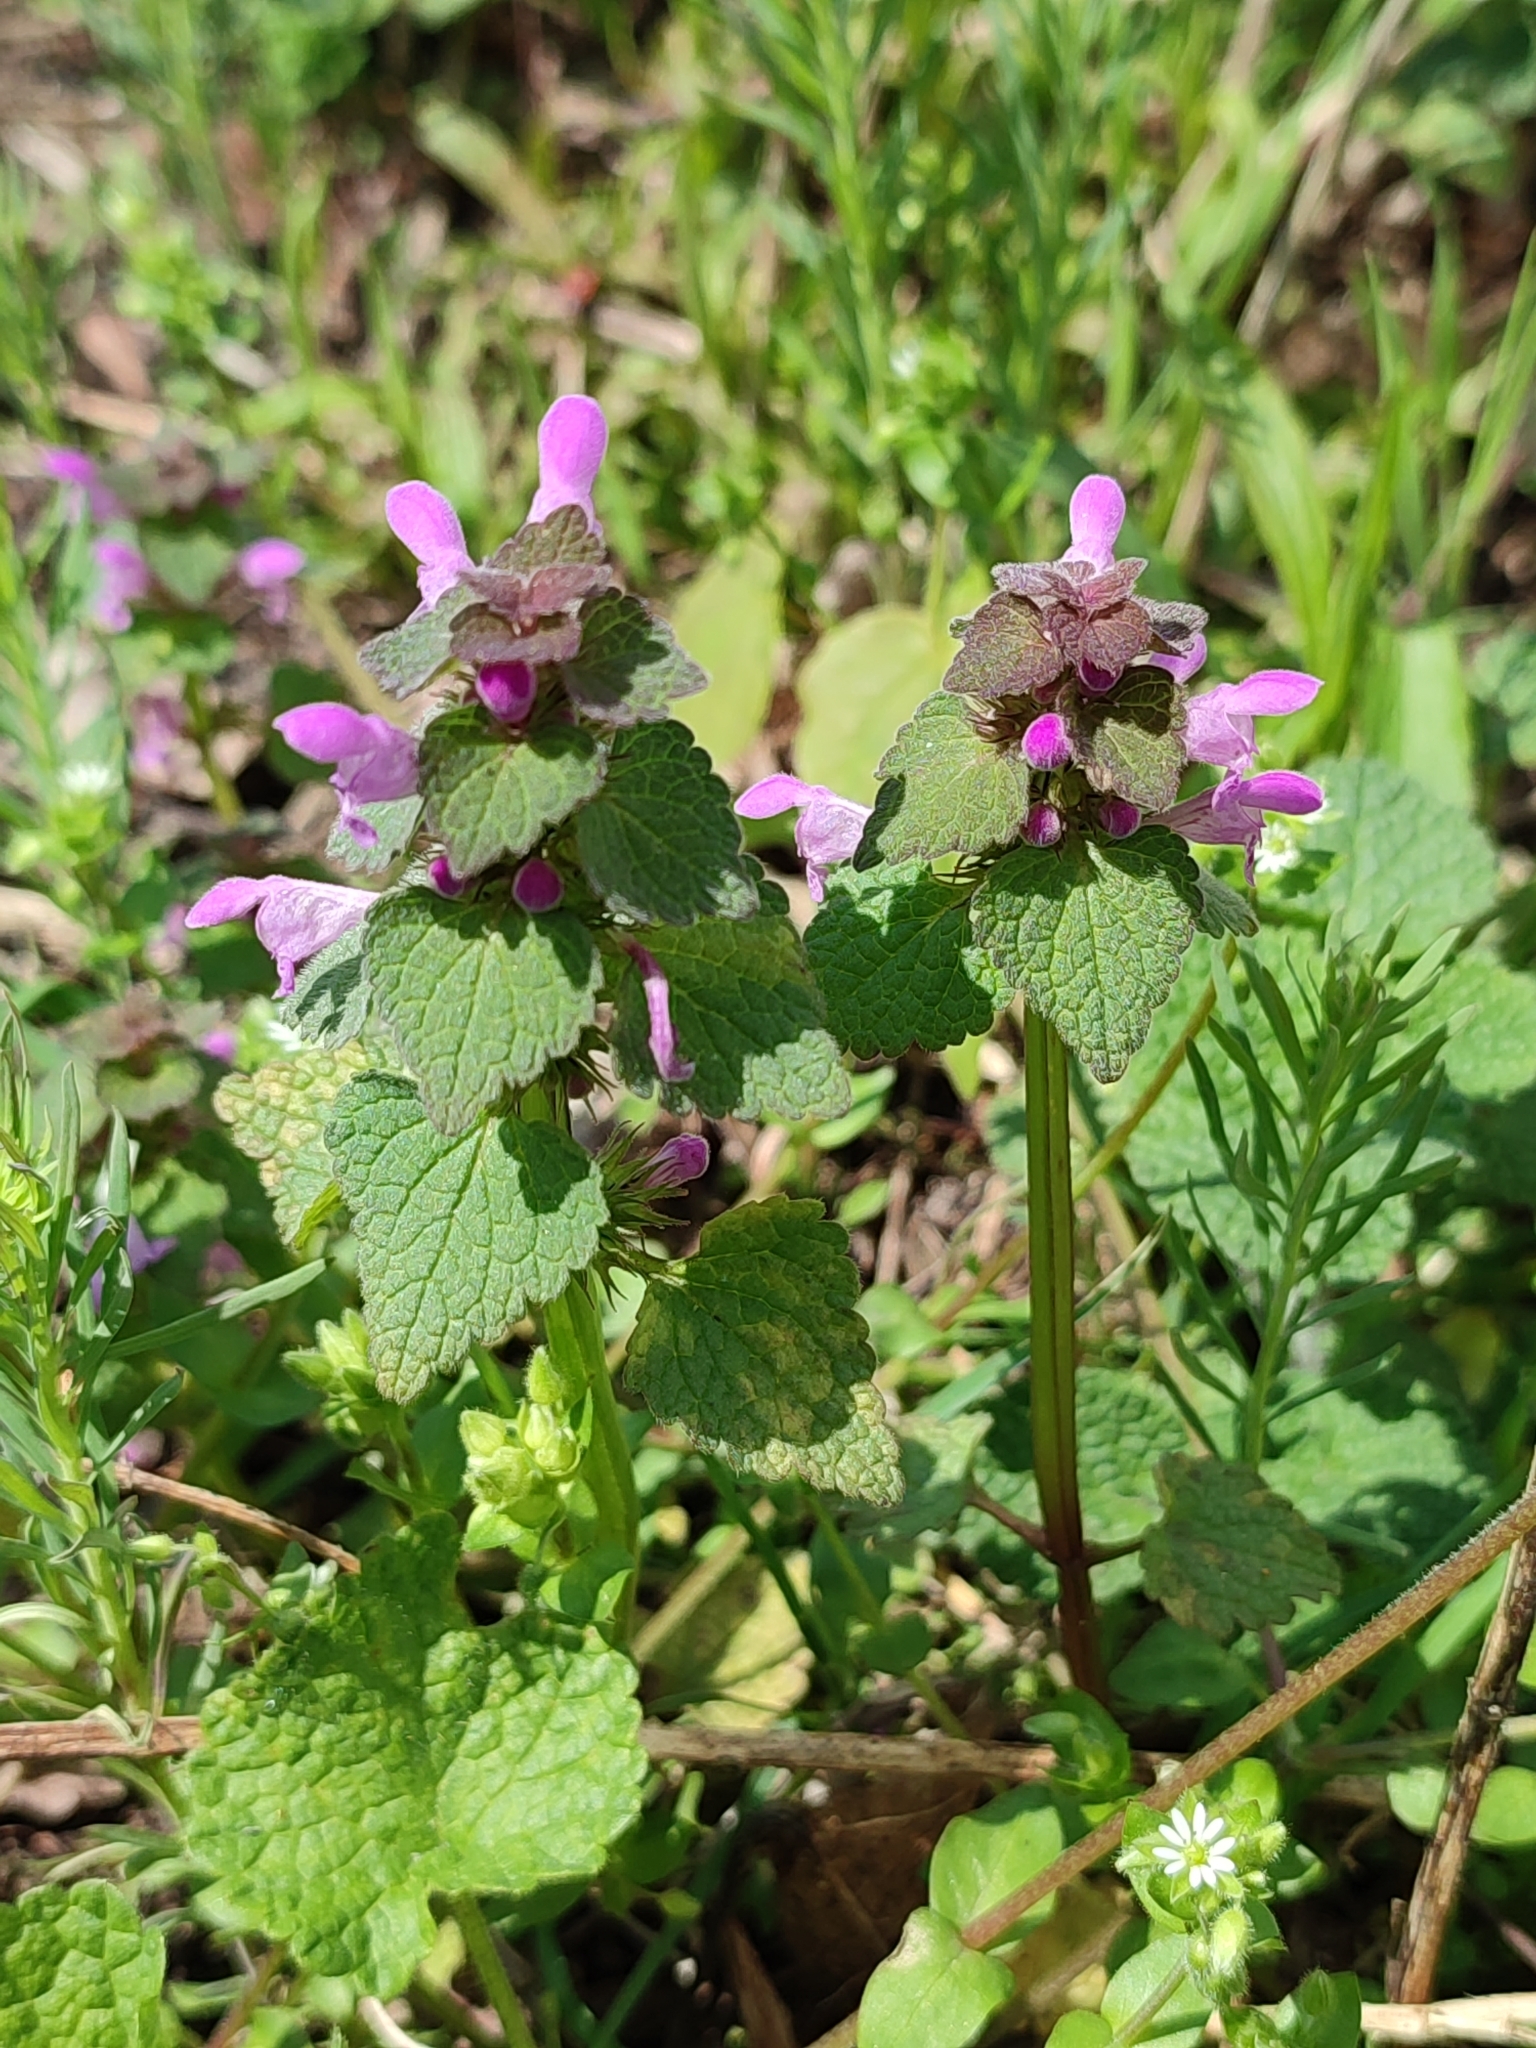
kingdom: Plantae
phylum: Tracheophyta
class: Magnoliopsida
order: Lamiales
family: Lamiaceae
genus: Lamium
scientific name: Lamium purpureum
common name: Red dead-nettle
